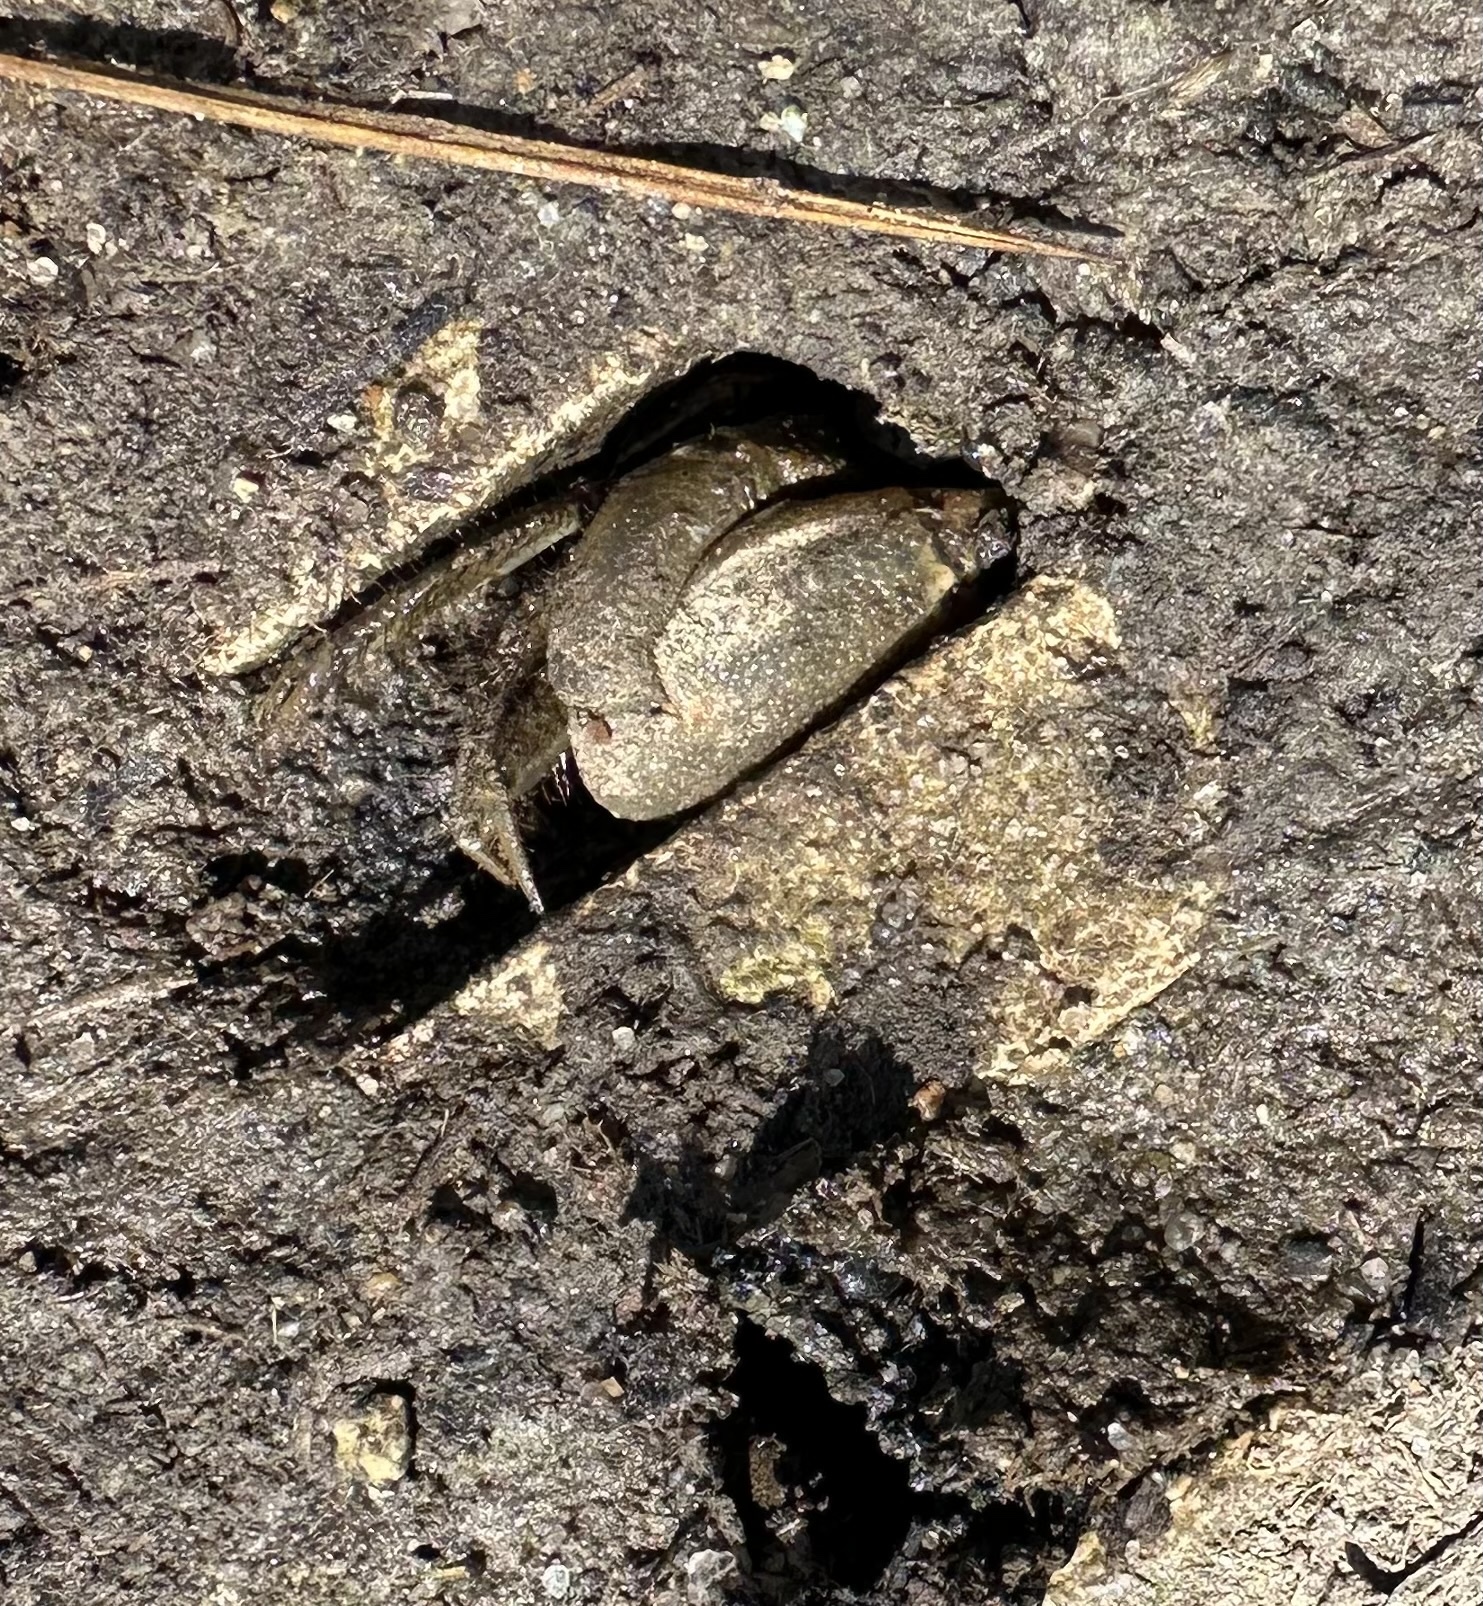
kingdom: Animalia
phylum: Arthropoda
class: Malacostraca
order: Decapoda
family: Ocypodidae
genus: Minuca
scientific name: Minuca pugnax
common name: Mud fiddler crab
